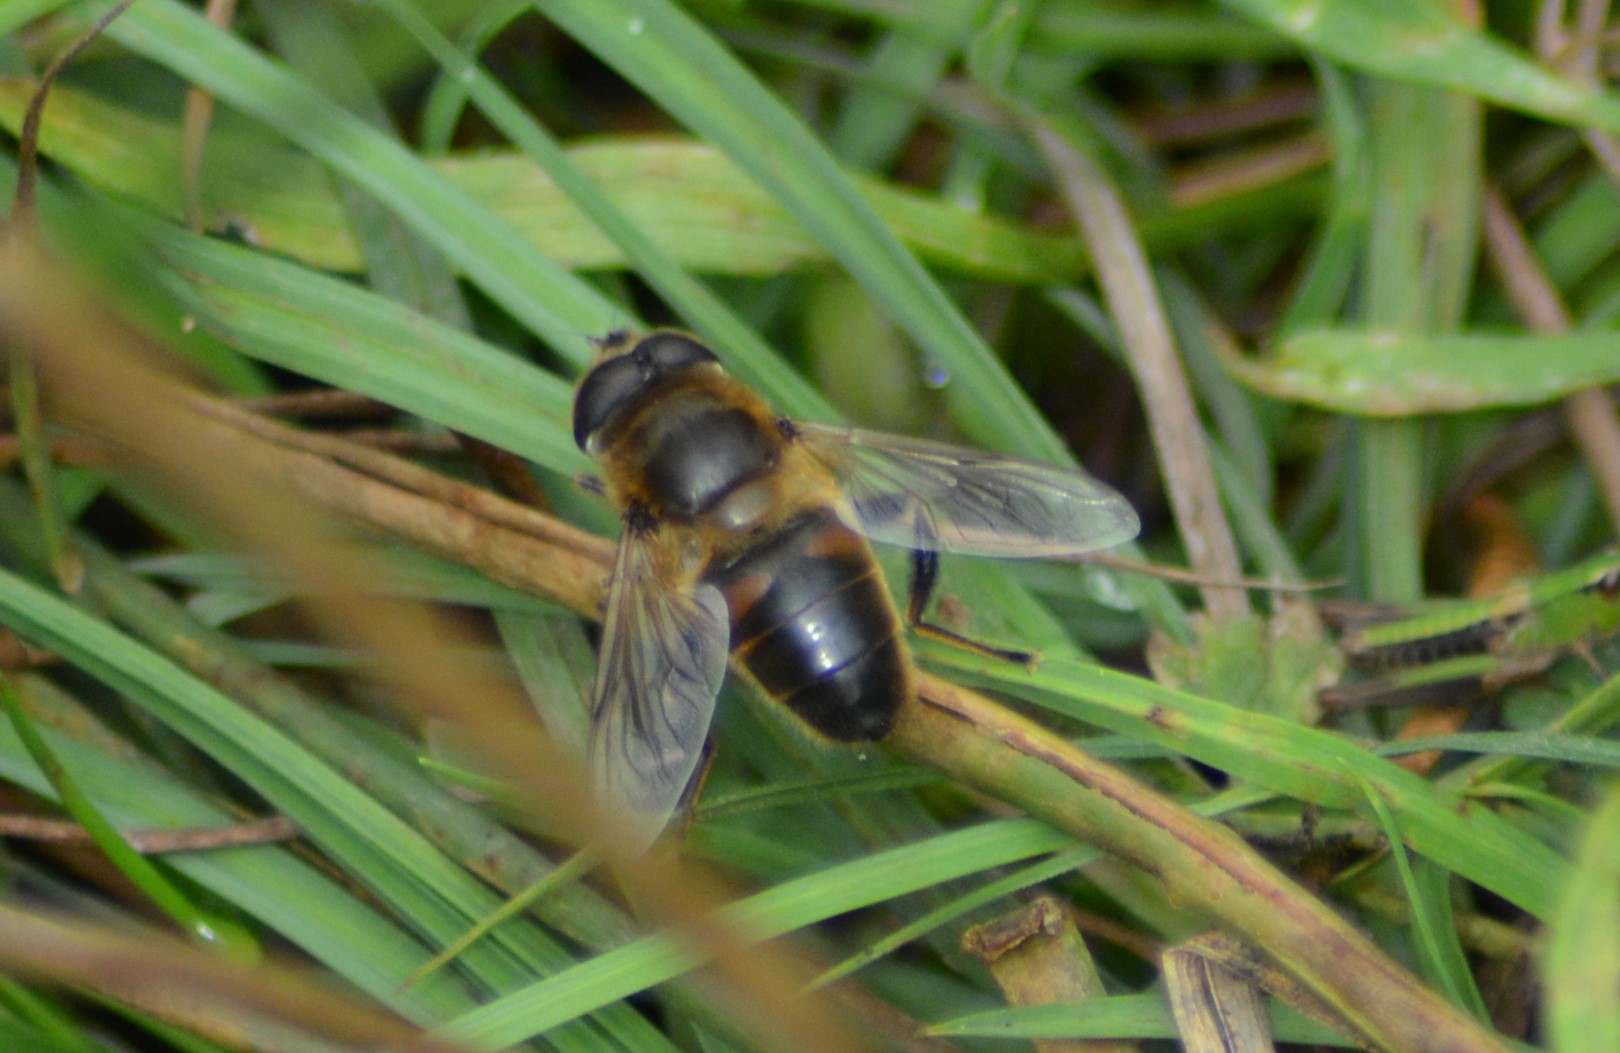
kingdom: Animalia
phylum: Arthropoda
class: Insecta
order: Diptera
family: Syrphidae
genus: Eristalis
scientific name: Eristalis tenax
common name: Drone fly
